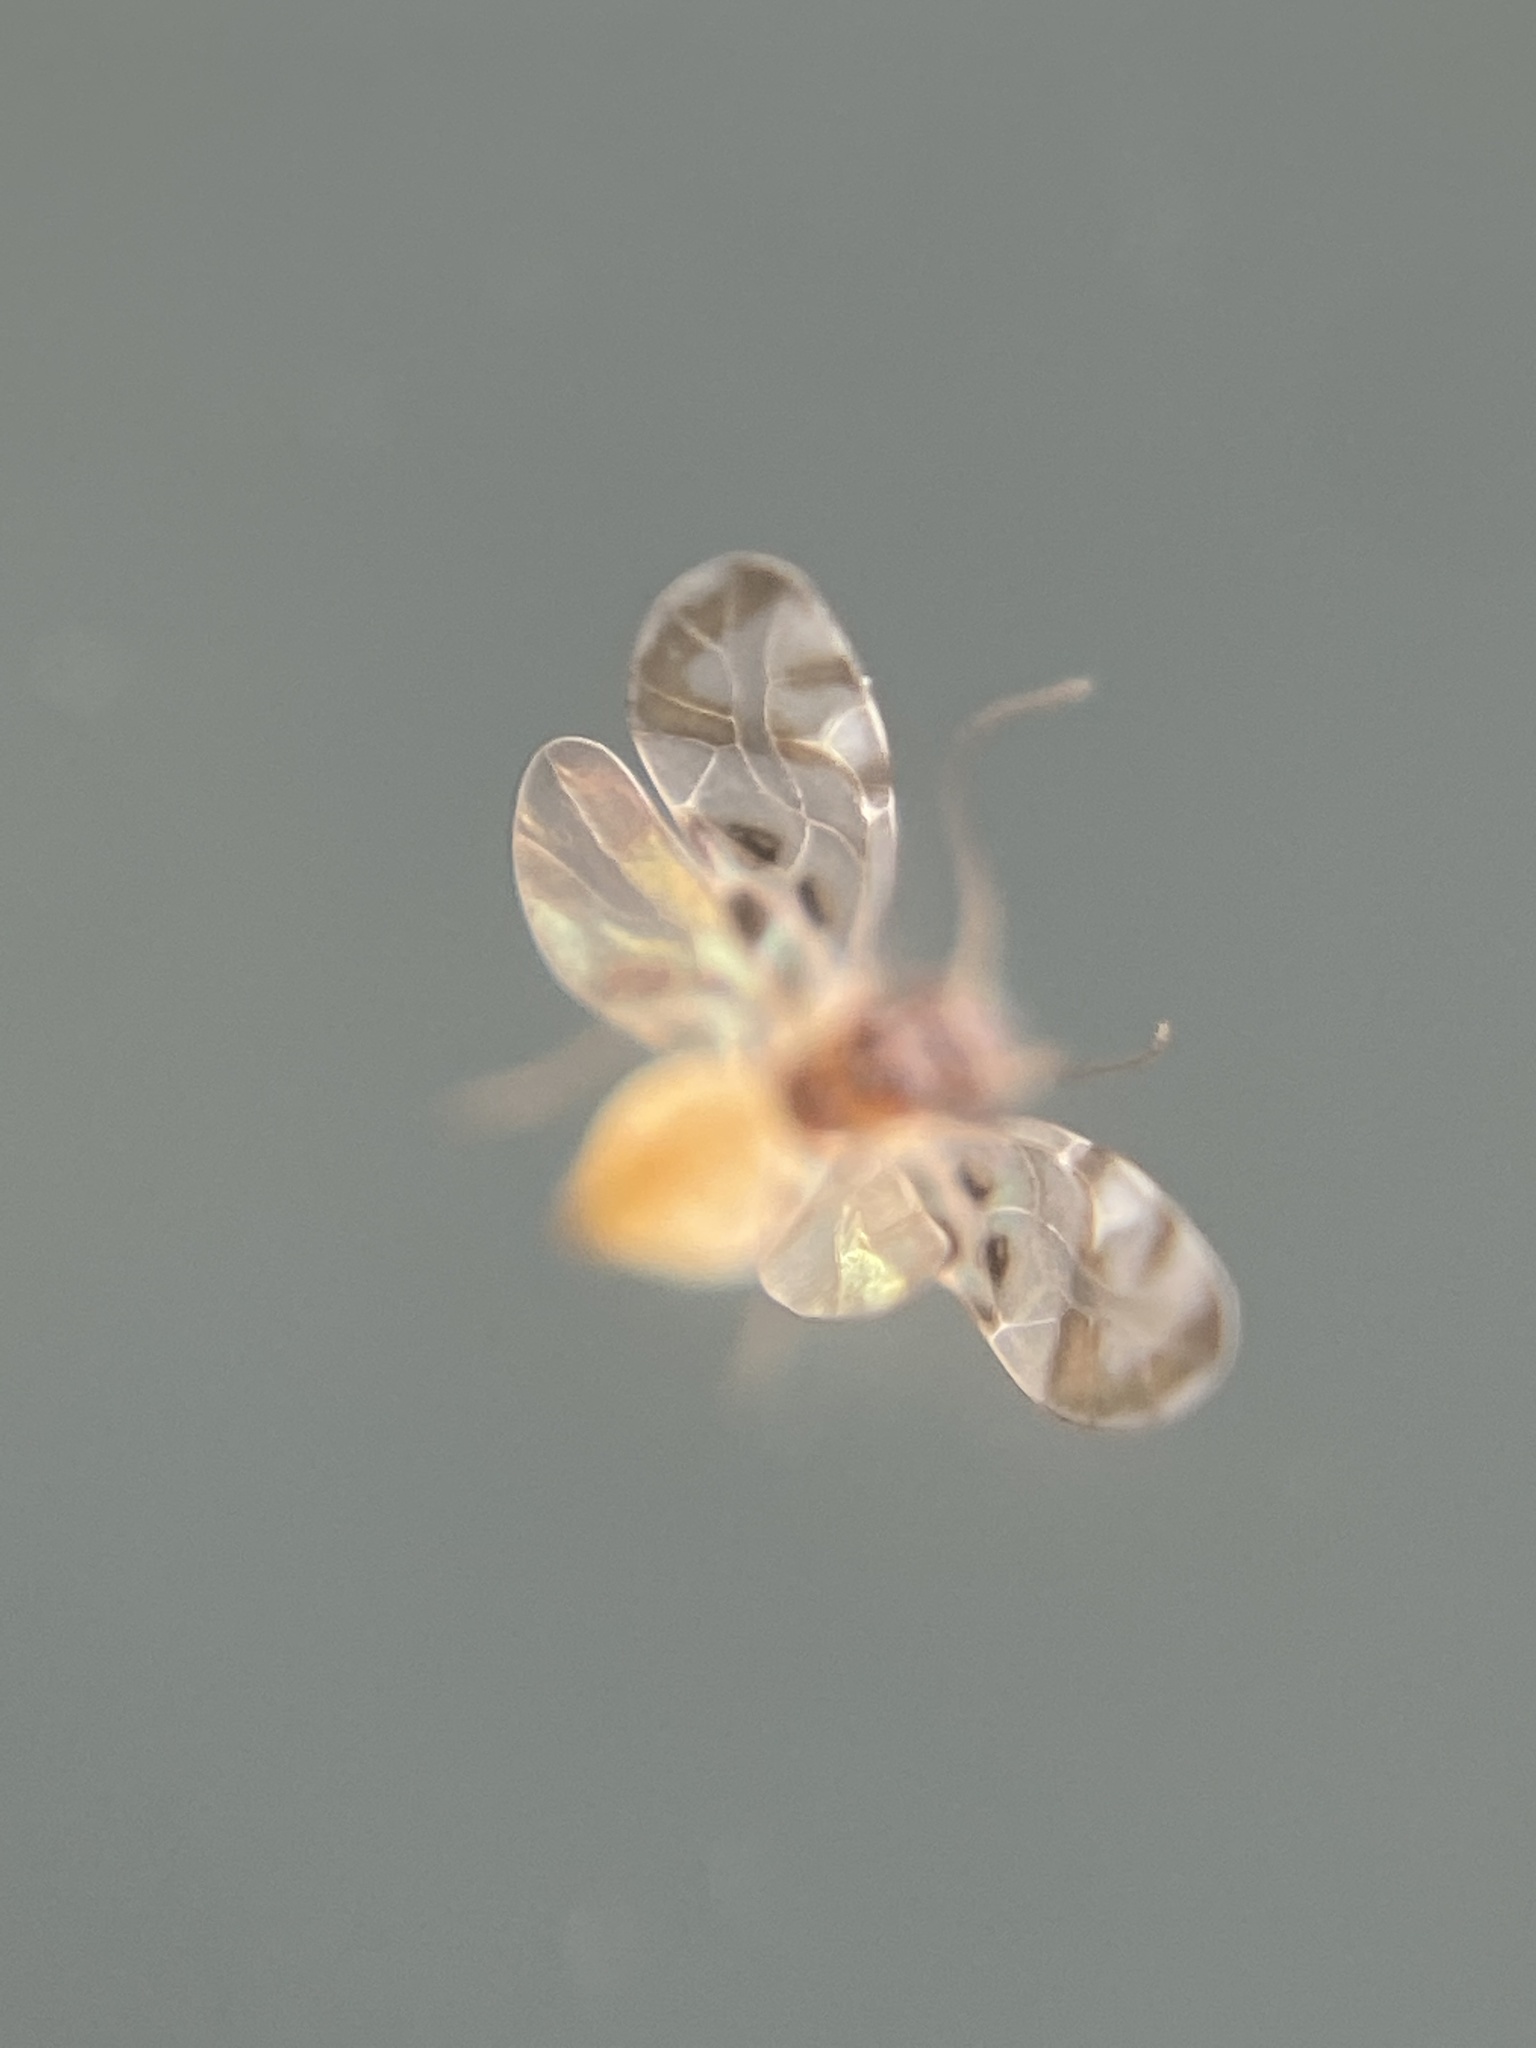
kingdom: Animalia
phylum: Arthropoda
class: Insecta
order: Psocodea
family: Stenopsocidae
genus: Graphopsocus
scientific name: Graphopsocus cruciatus
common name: Lizard bark louse
